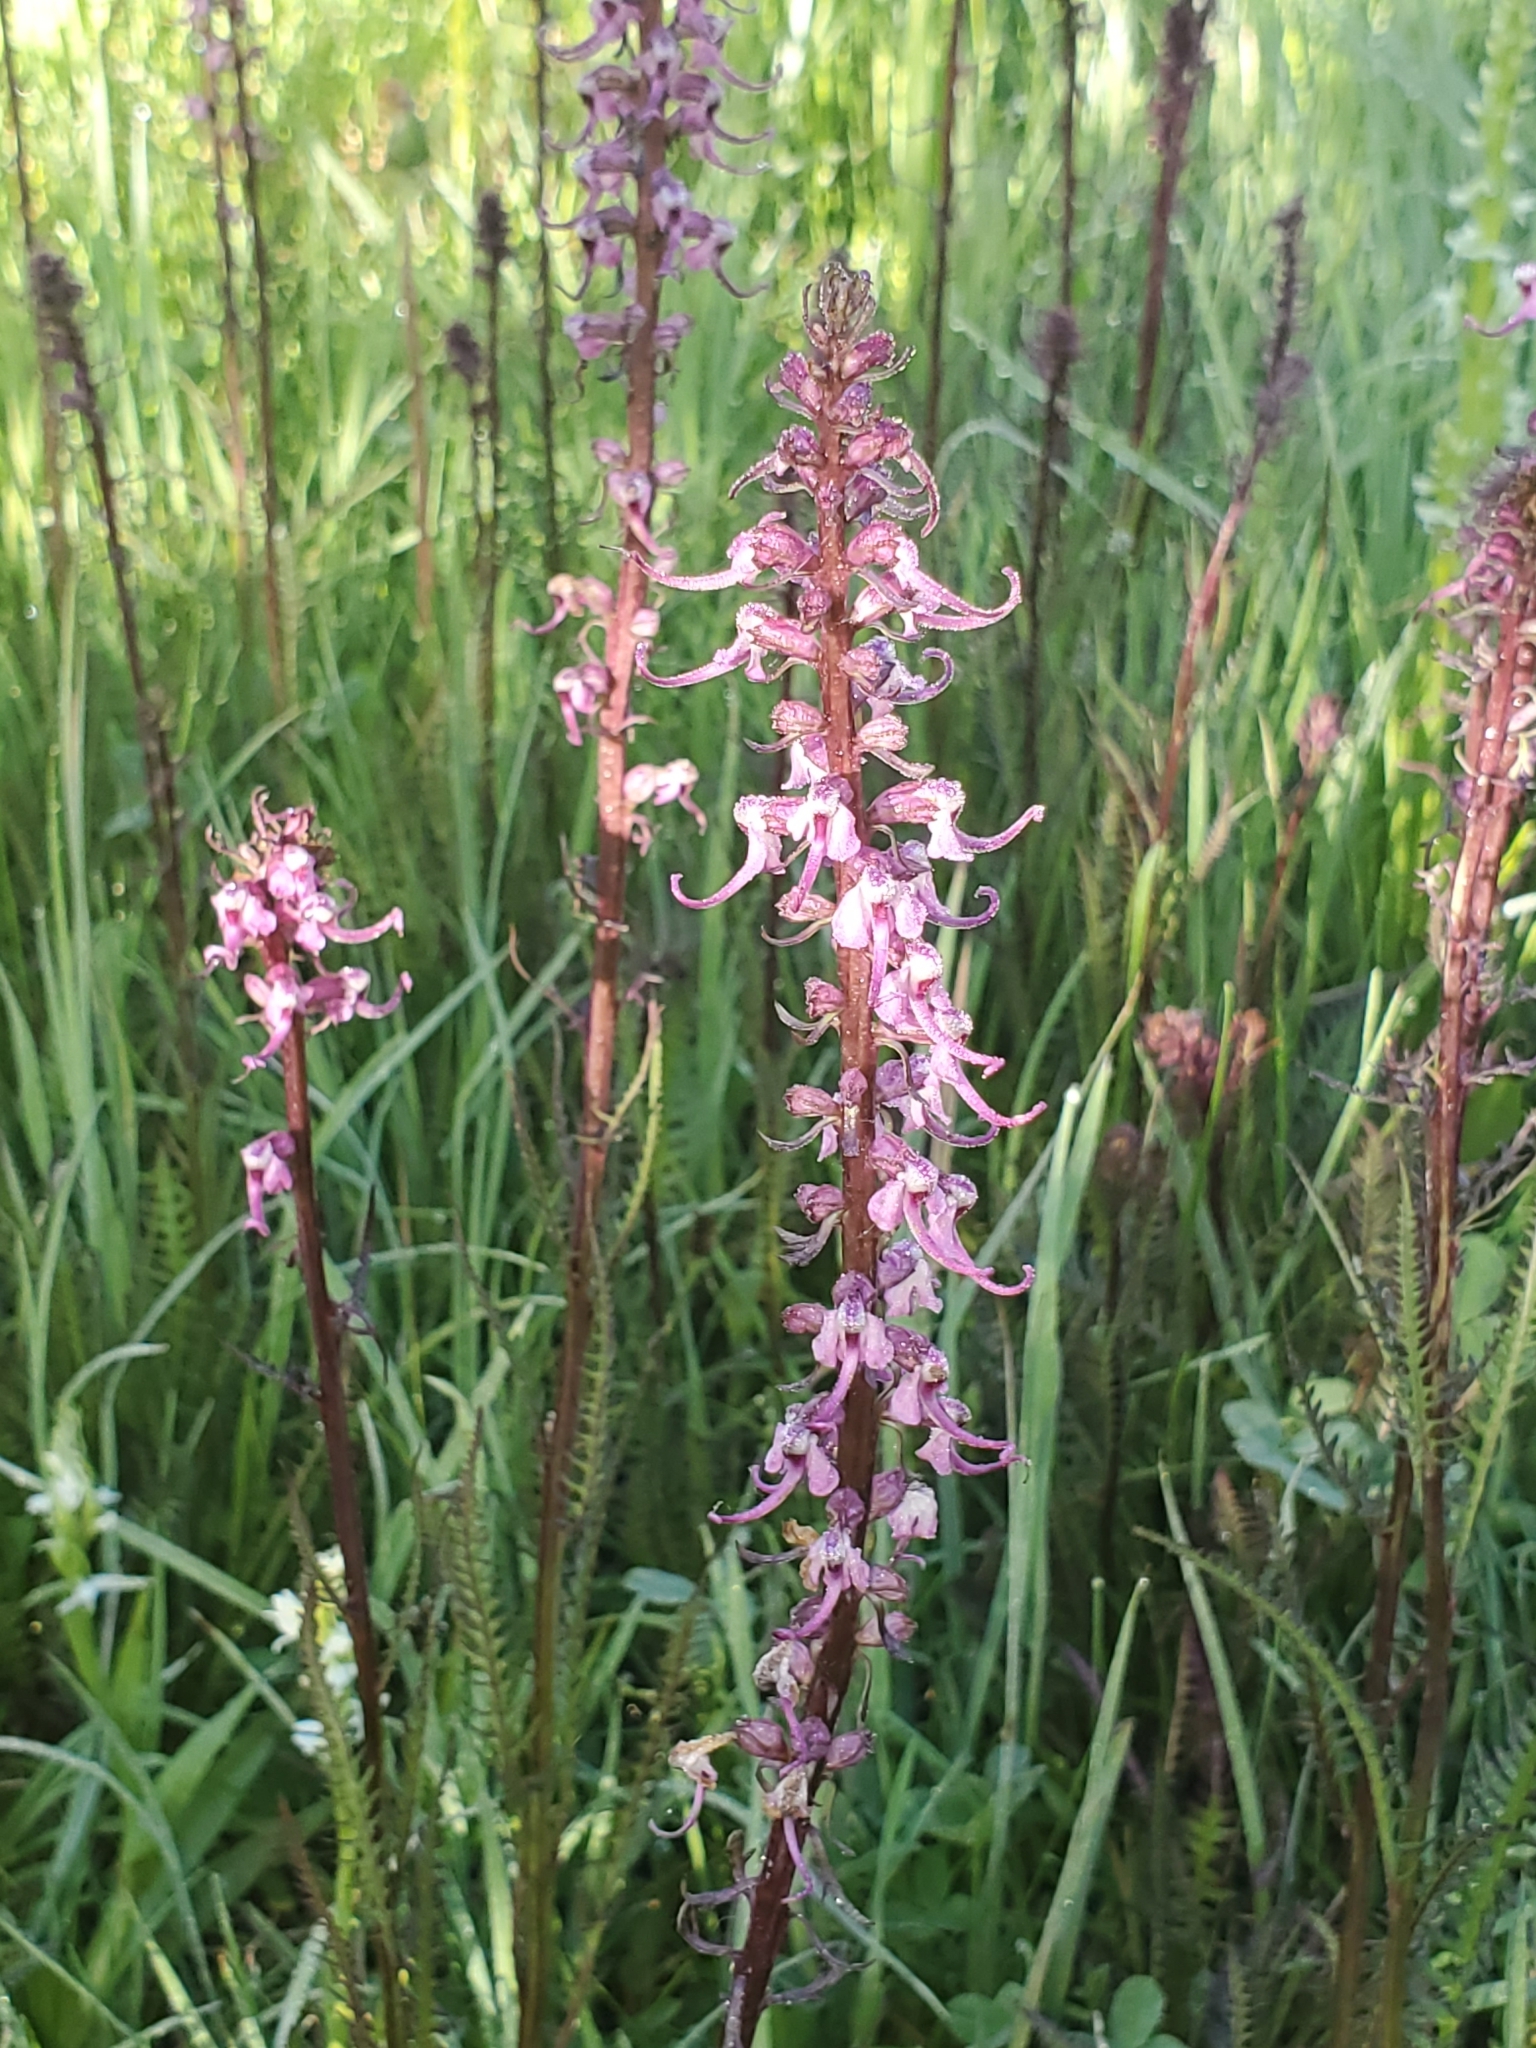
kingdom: Plantae
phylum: Tracheophyta
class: Magnoliopsida
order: Lamiales
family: Orobanchaceae
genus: Pedicularis
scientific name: Pedicularis groenlandica
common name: Elephant's-head
